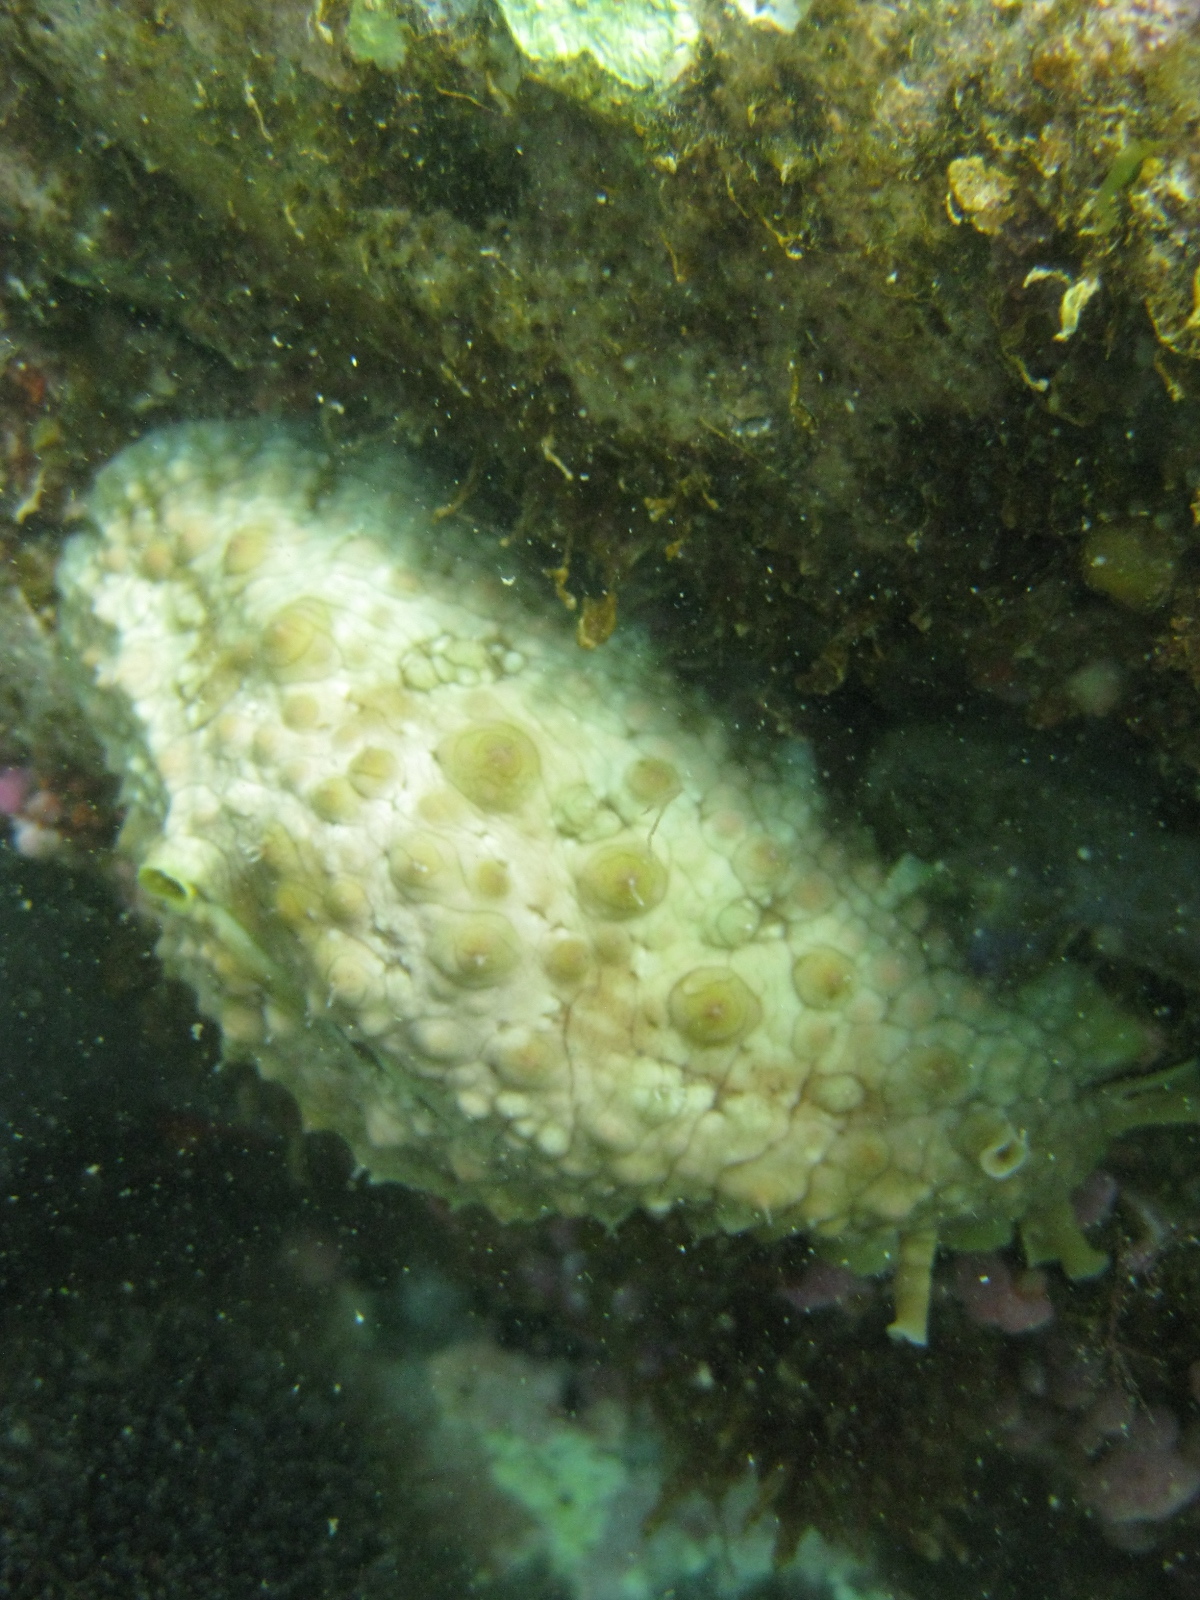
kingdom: Animalia
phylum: Mollusca
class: Gastropoda
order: Aplysiida
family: Aplysiidae
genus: Dolabrifera
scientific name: Dolabrifera brazieri
